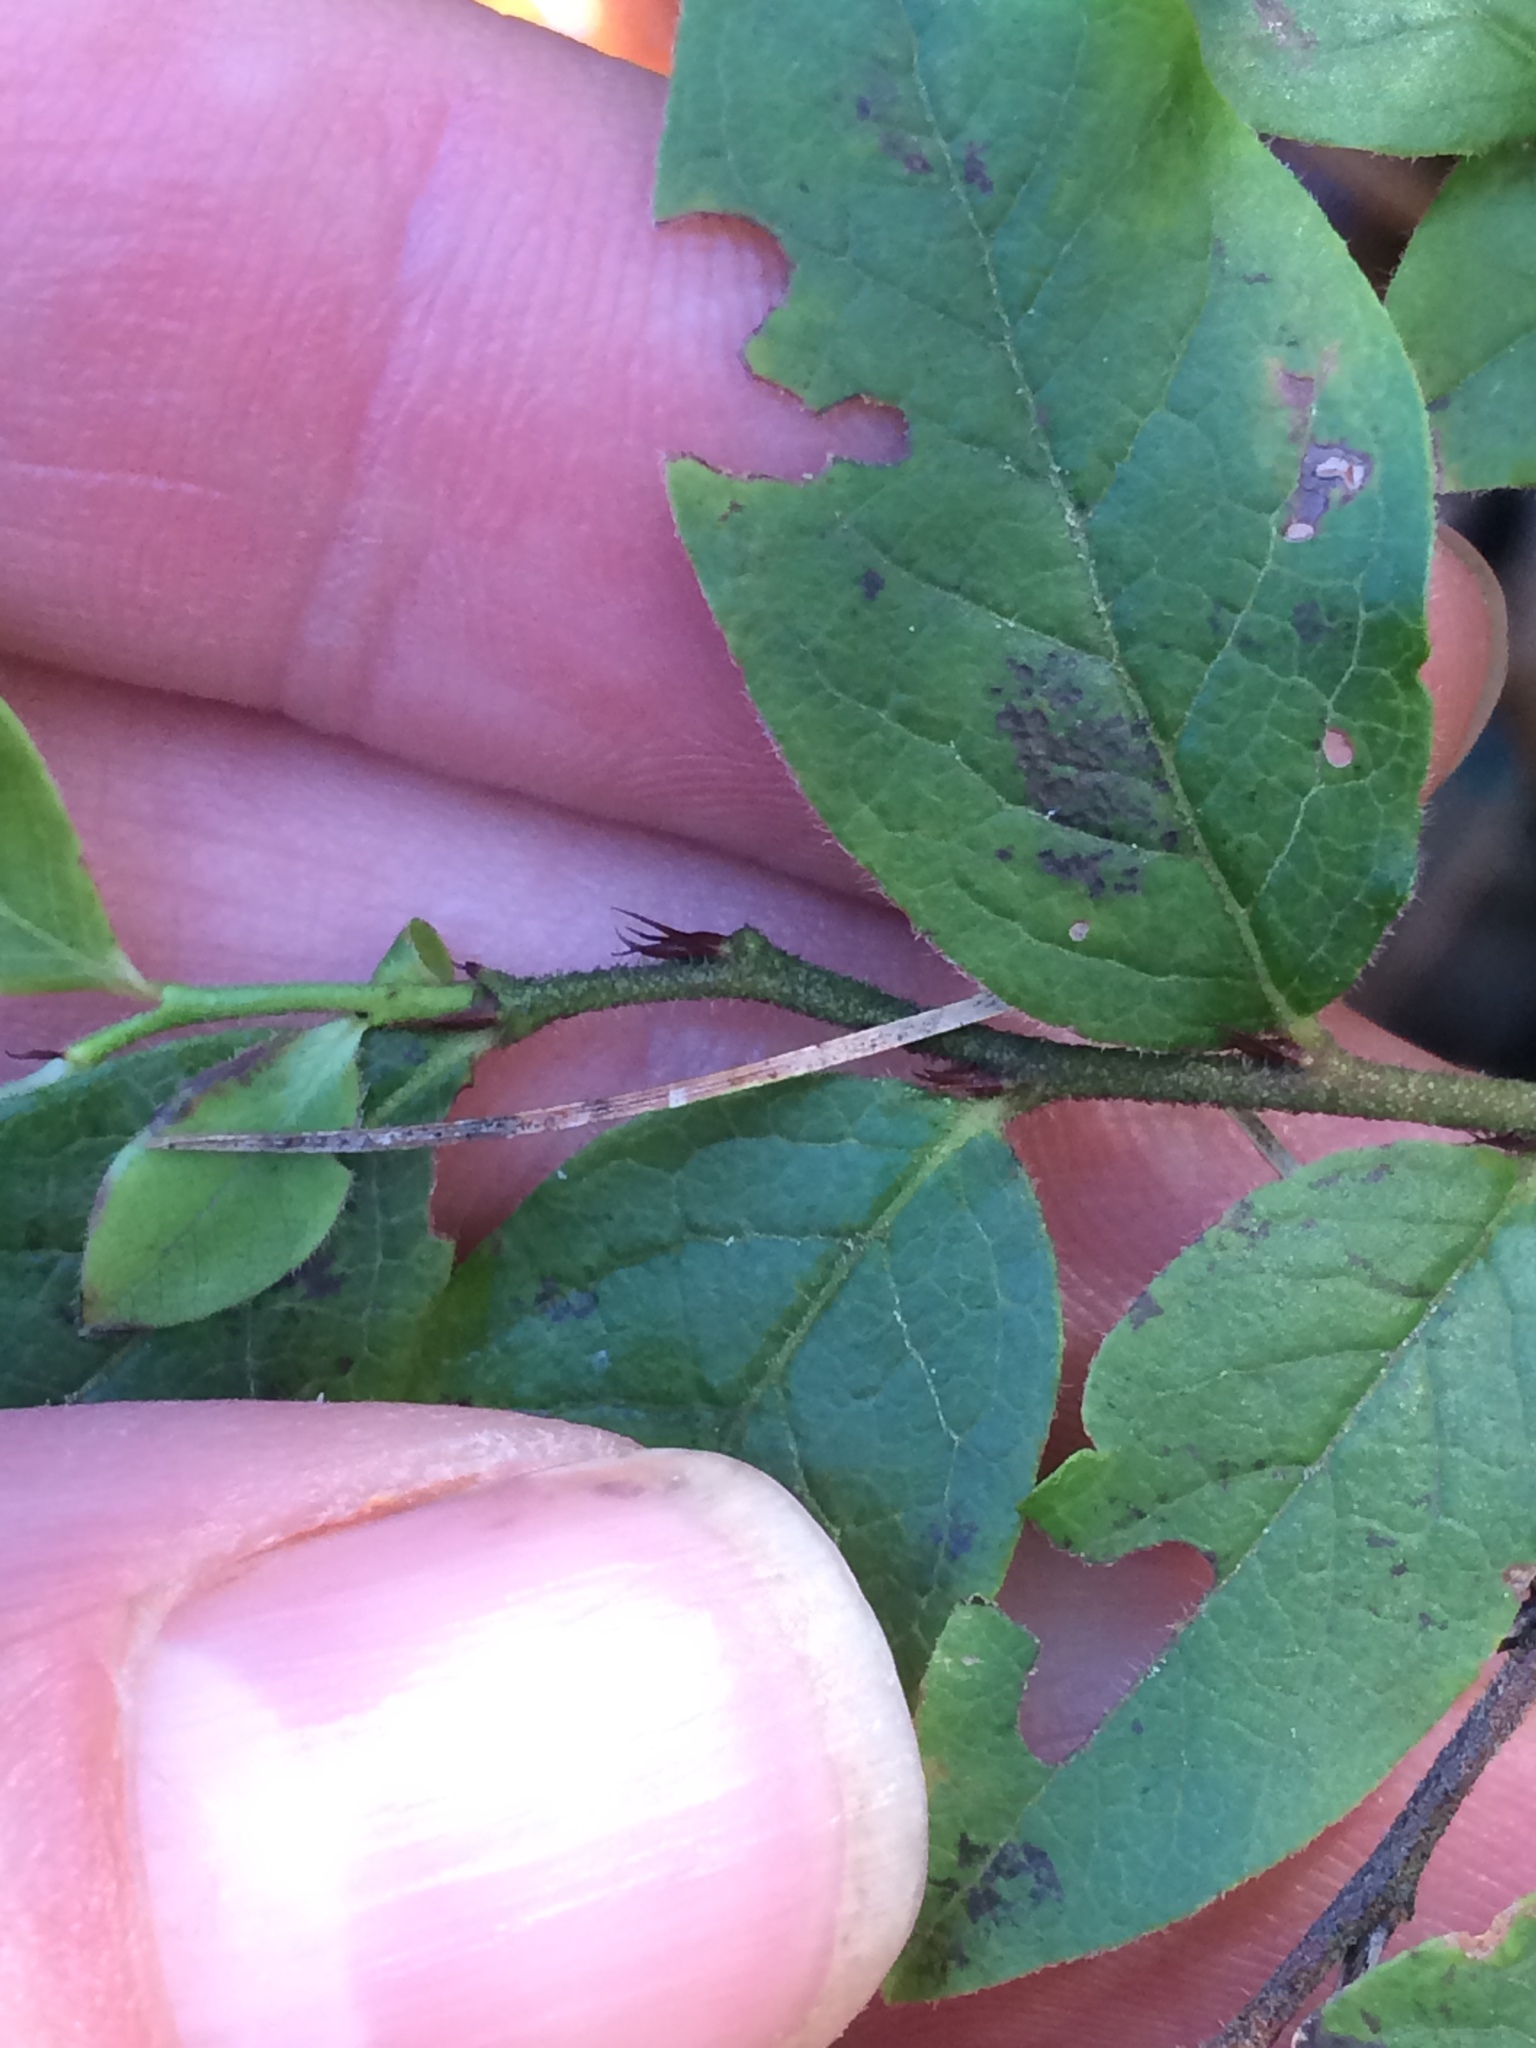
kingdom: Plantae
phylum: Tracheophyta
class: Magnoliopsida
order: Ericales
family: Ericaceae
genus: Vaccinium
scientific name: Vaccinium angustifolium
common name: Early lowbush blueberry
